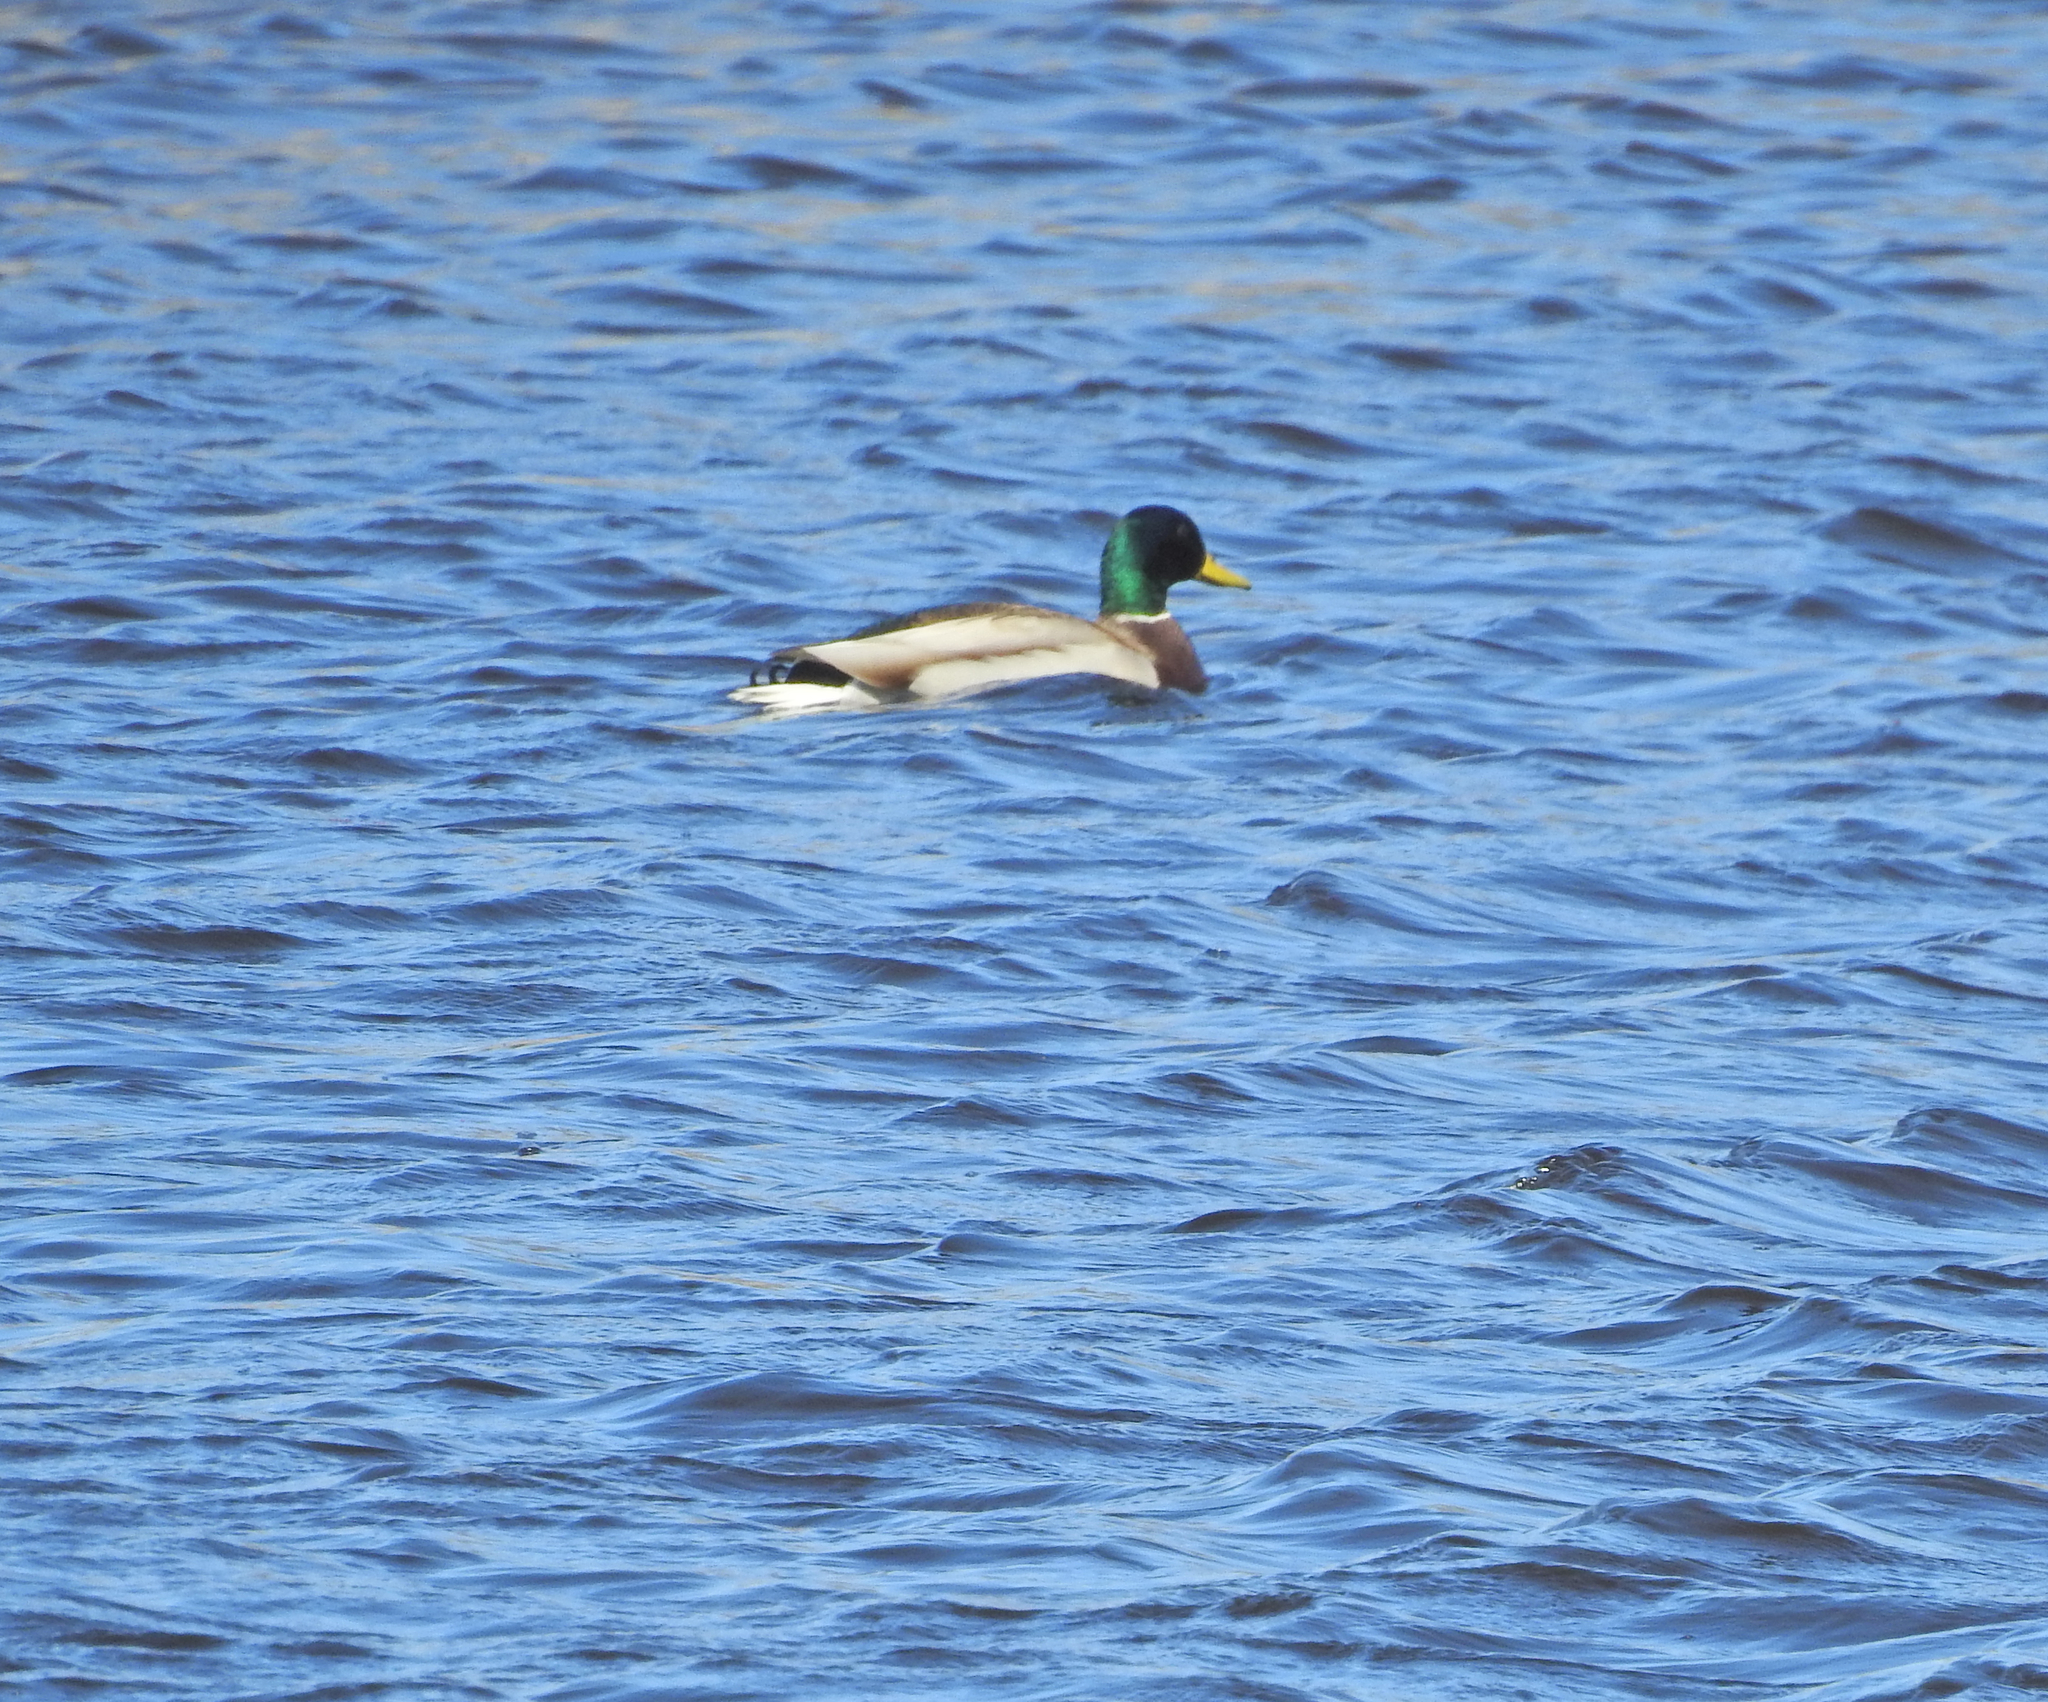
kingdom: Animalia
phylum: Chordata
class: Aves
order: Anseriformes
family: Anatidae
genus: Anas
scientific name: Anas platyrhynchos
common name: Mallard
